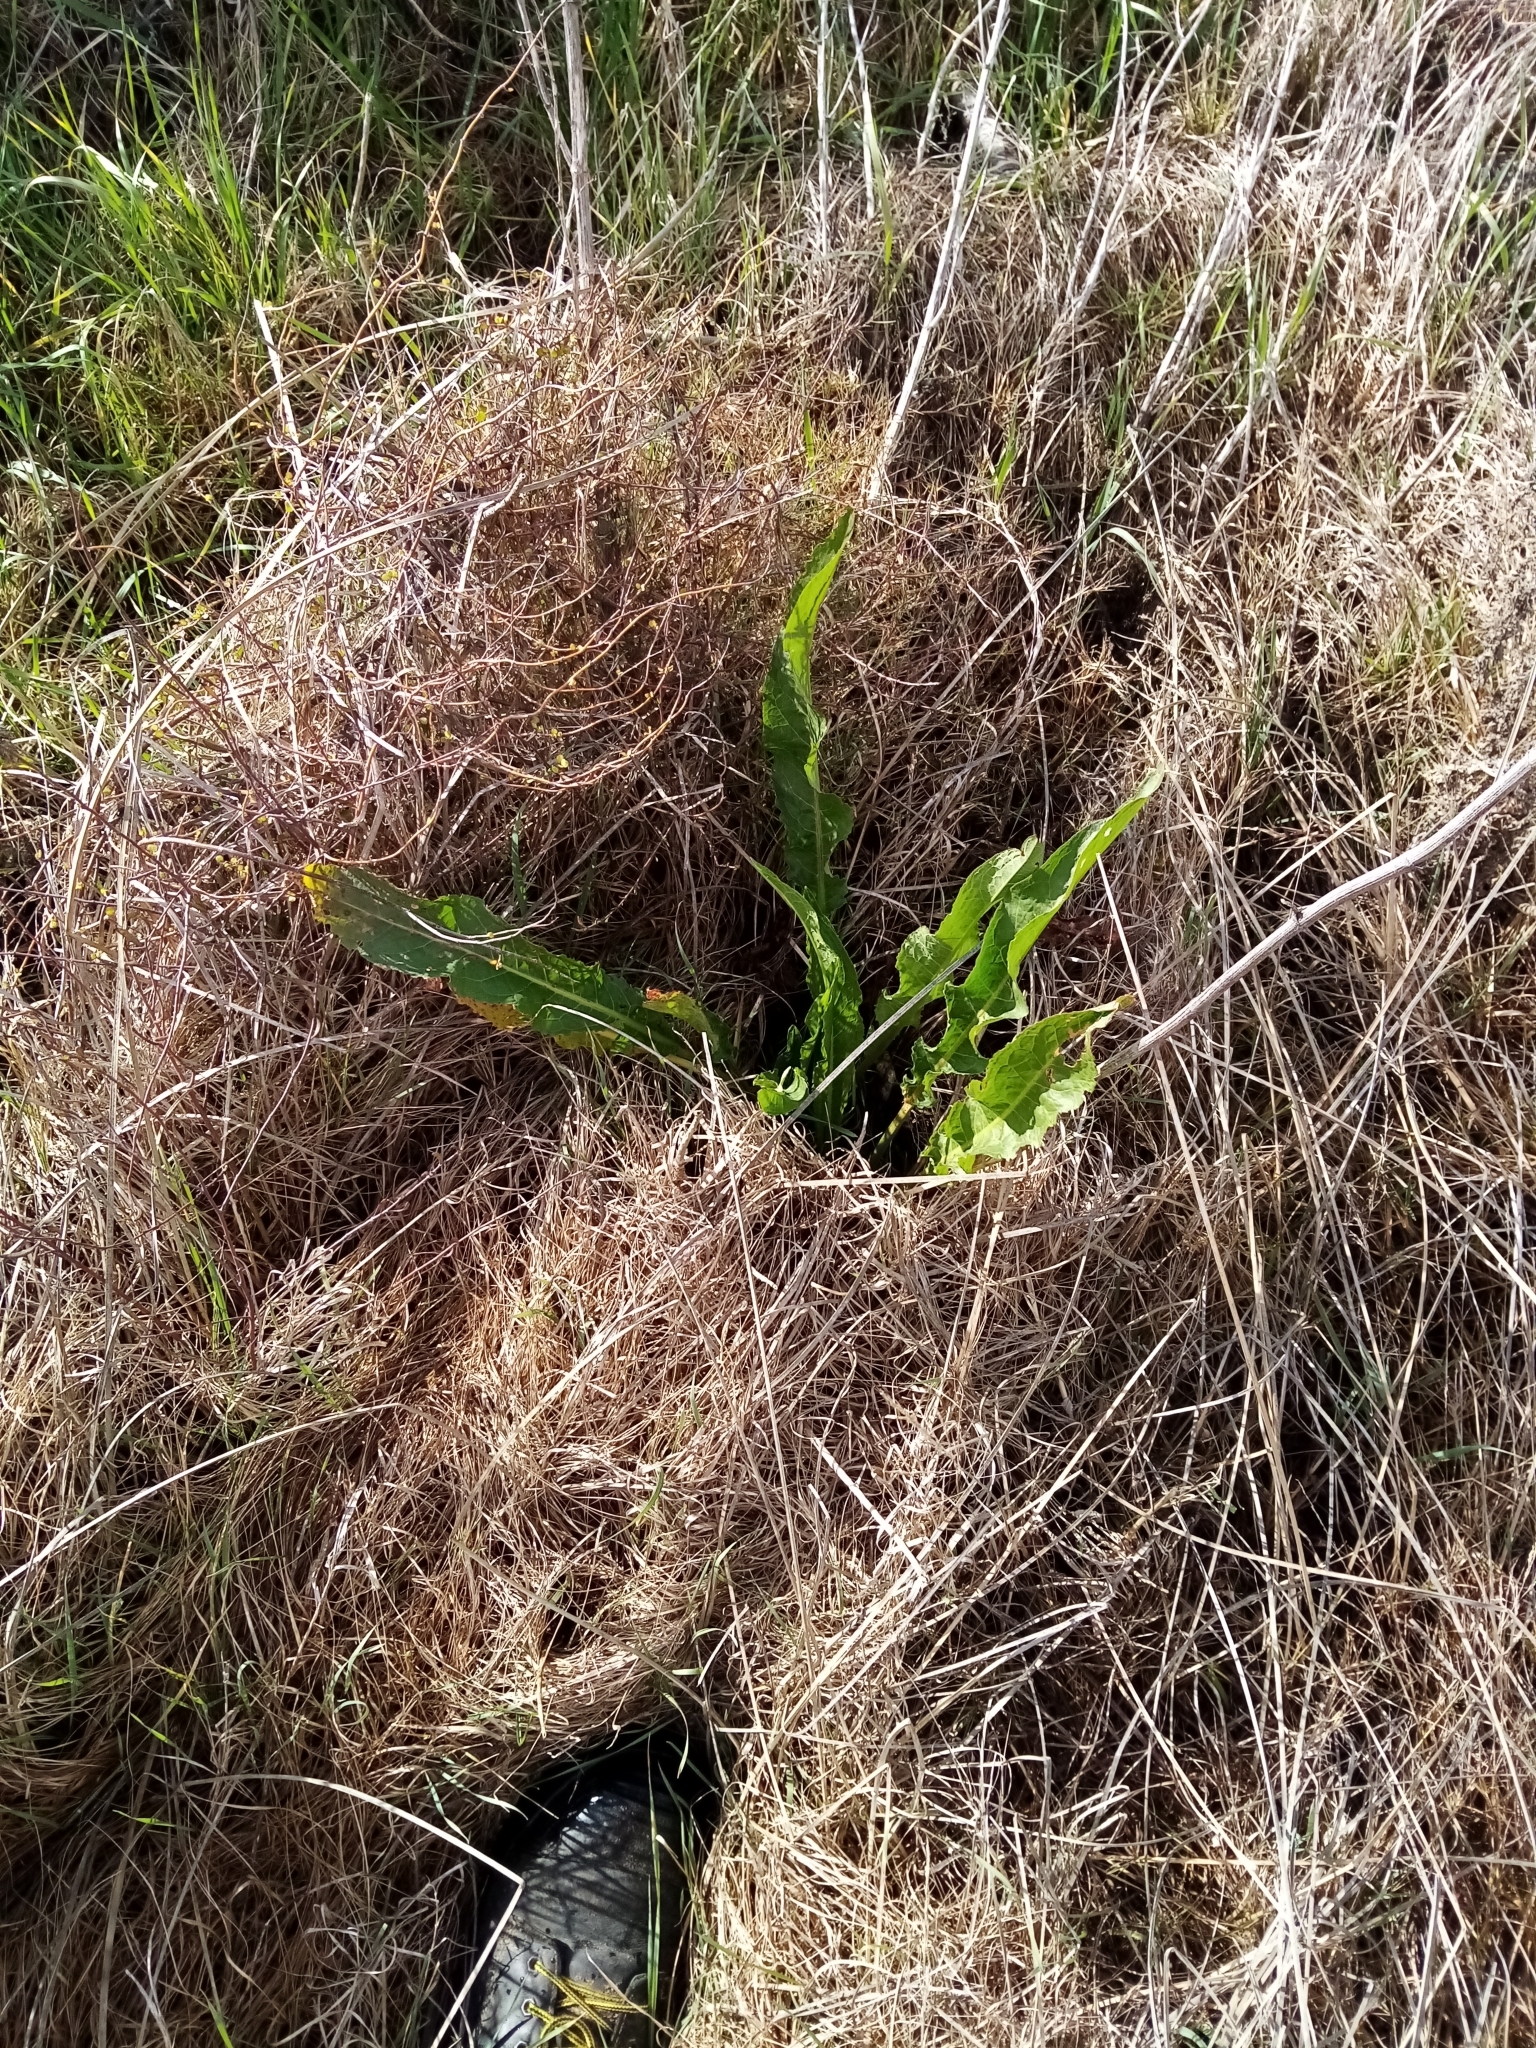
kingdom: Plantae
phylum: Tracheophyta
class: Magnoliopsida
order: Caryophyllales
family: Polygonaceae
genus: Rumex
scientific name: Rumex crispus
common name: Curled dock
